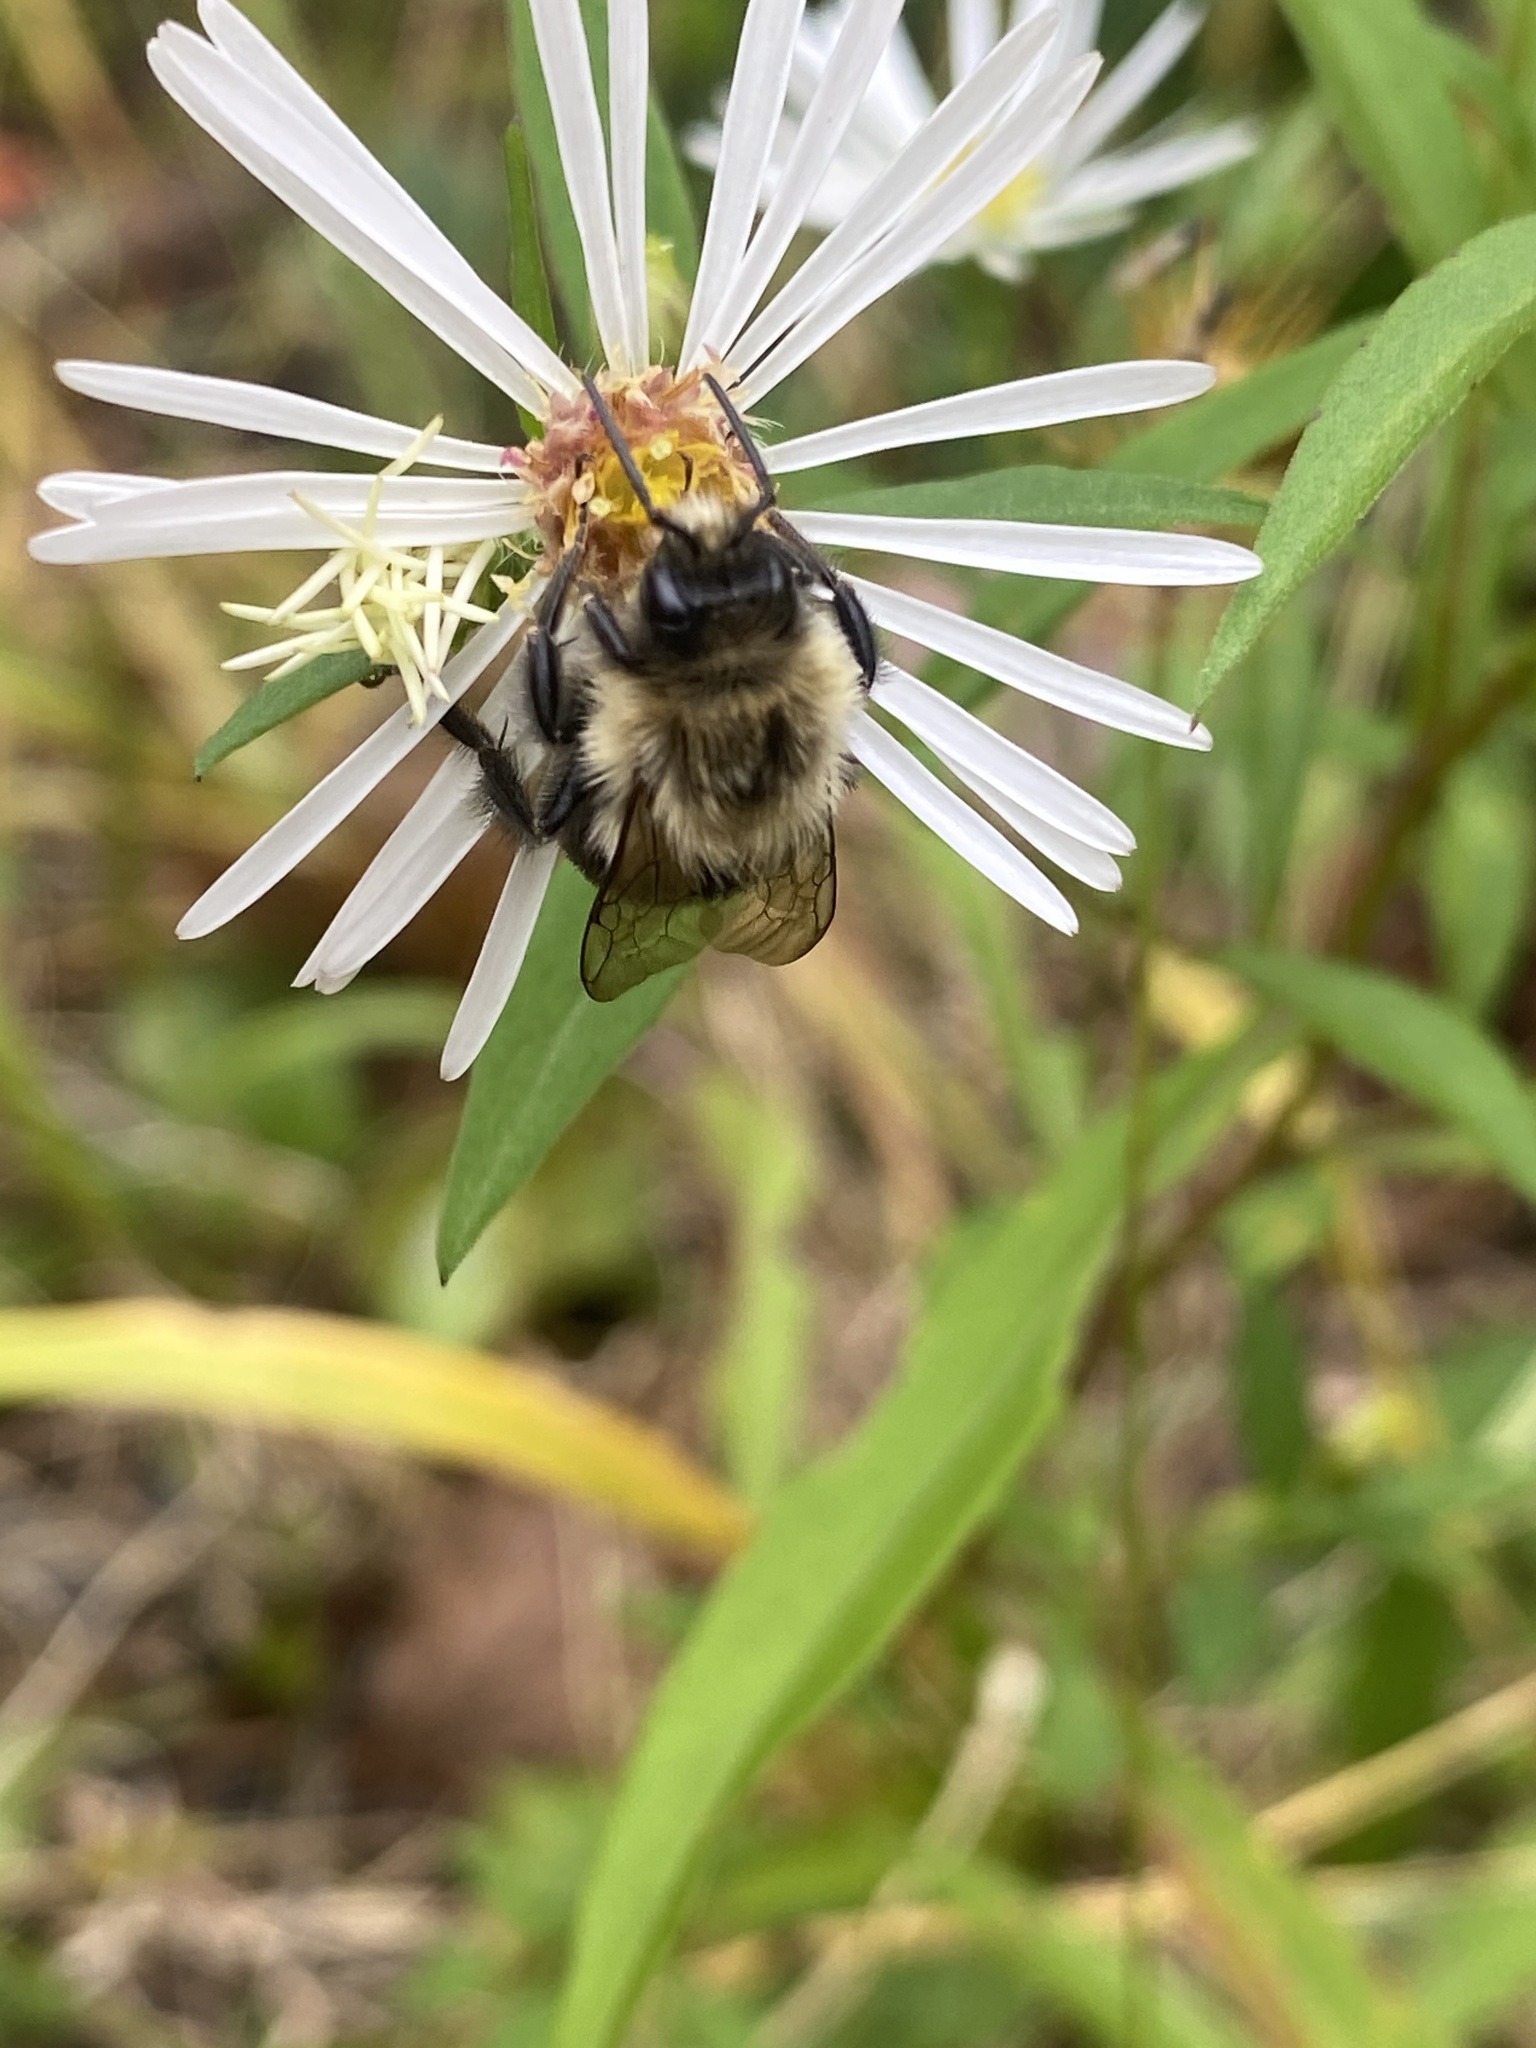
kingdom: Animalia
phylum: Arthropoda
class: Insecta
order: Hymenoptera
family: Apidae
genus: Bombus
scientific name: Bombus impatiens
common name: Common eastern bumble bee
